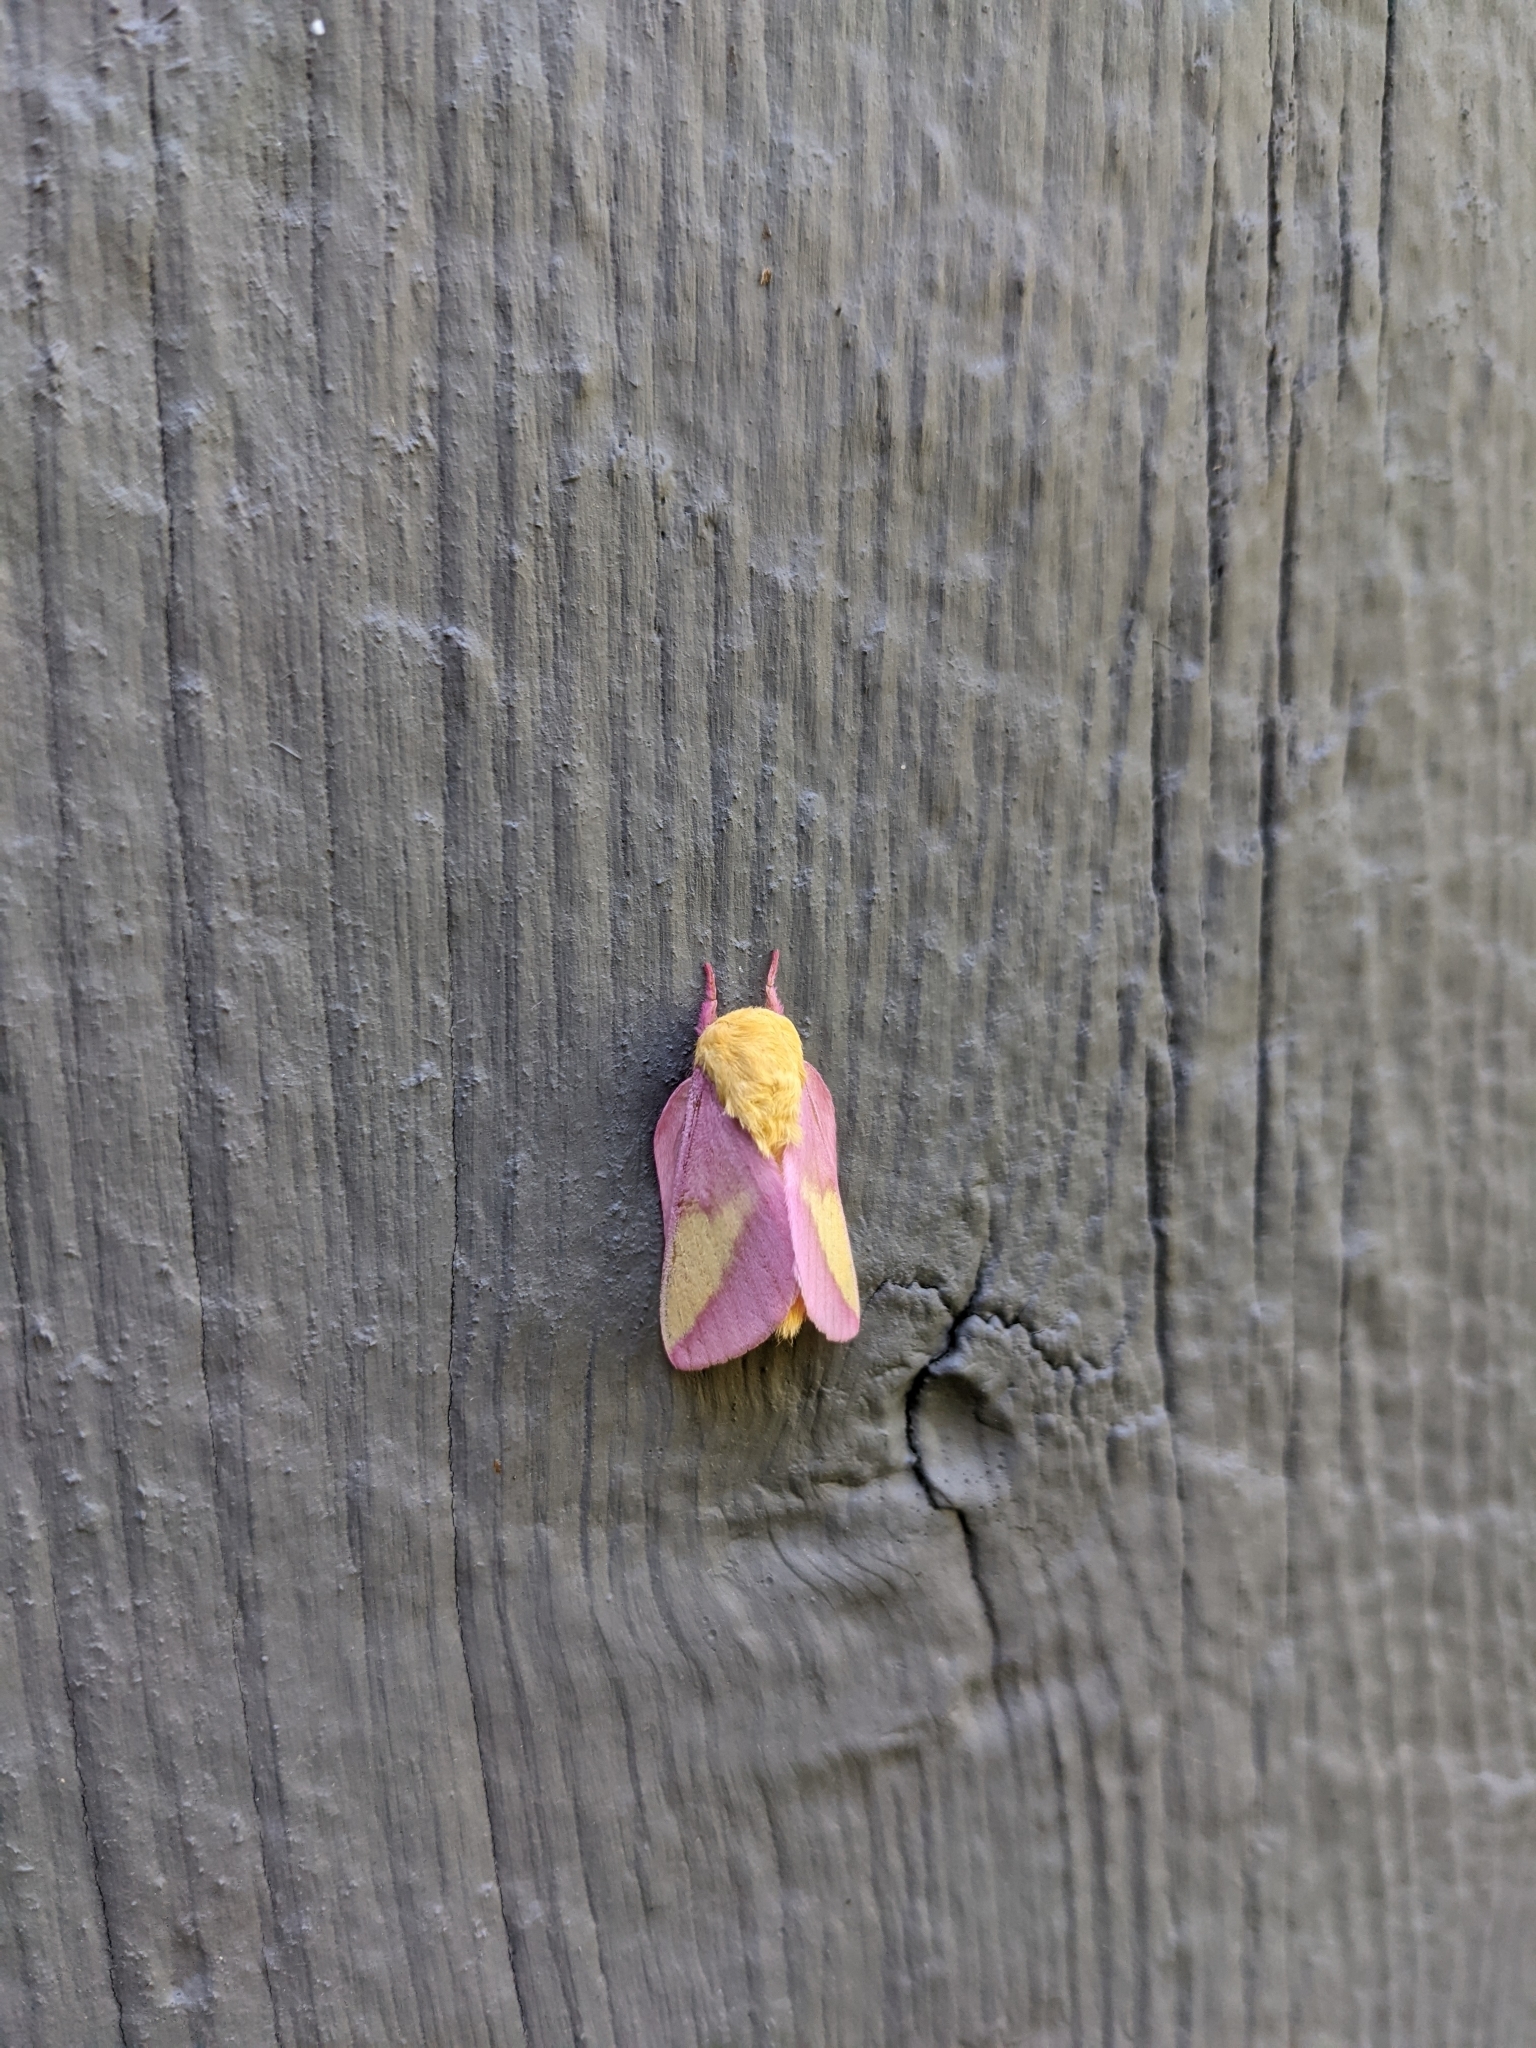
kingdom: Animalia
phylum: Arthropoda
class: Insecta
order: Lepidoptera
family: Saturniidae
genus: Dryocampa
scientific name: Dryocampa rubicunda
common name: Rosy maple moth
